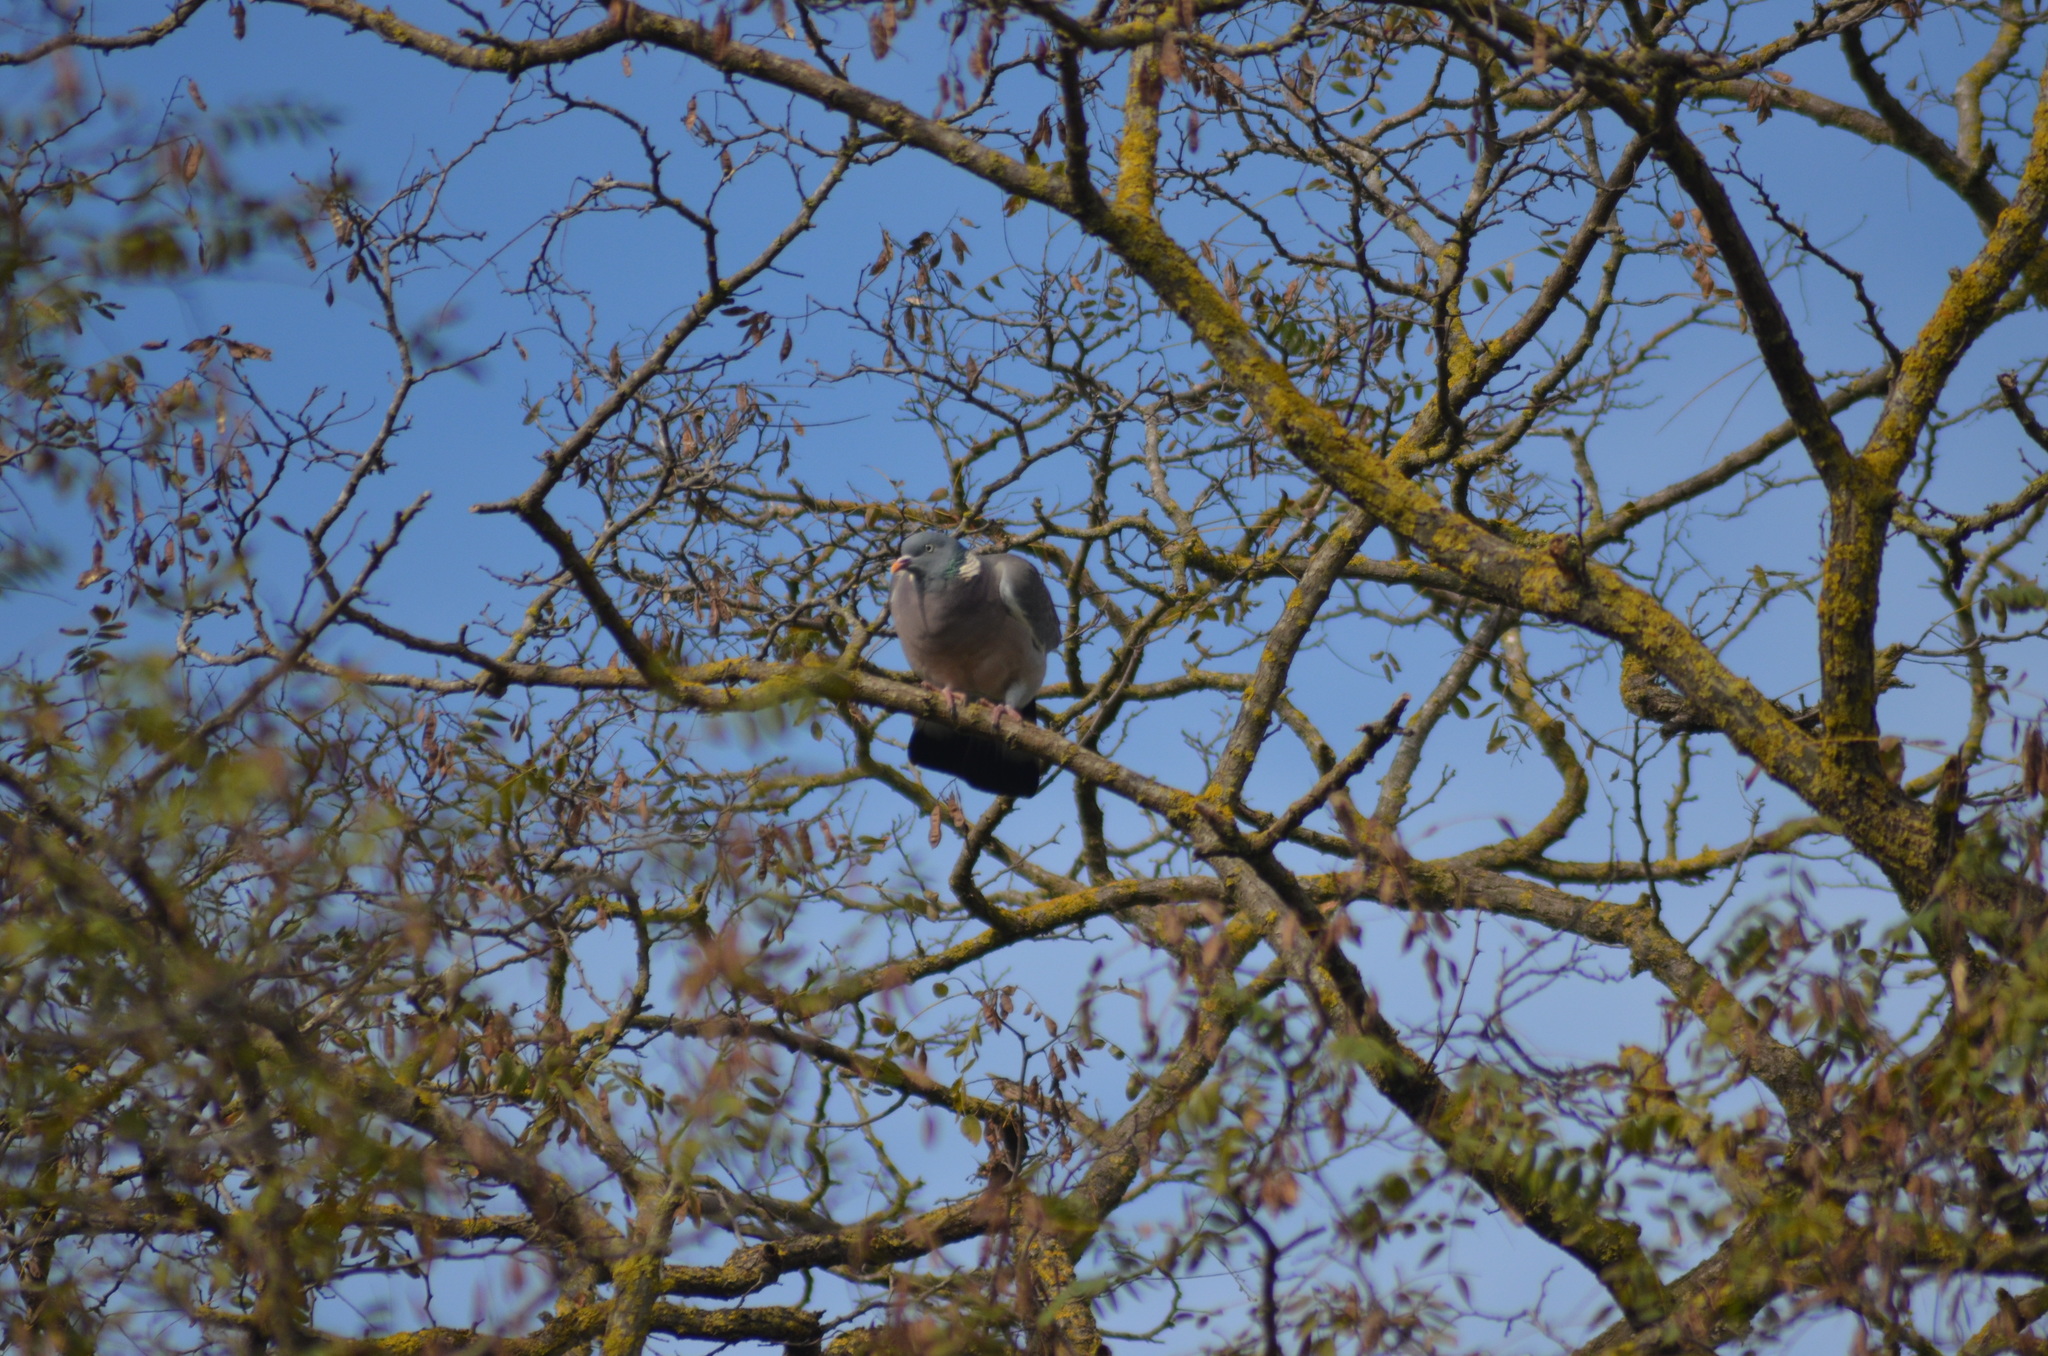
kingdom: Animalia
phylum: Chordata
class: Aves
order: Columbiformes
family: Columbidae
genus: Columba
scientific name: Columba palumbus
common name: Common wood pigeon
